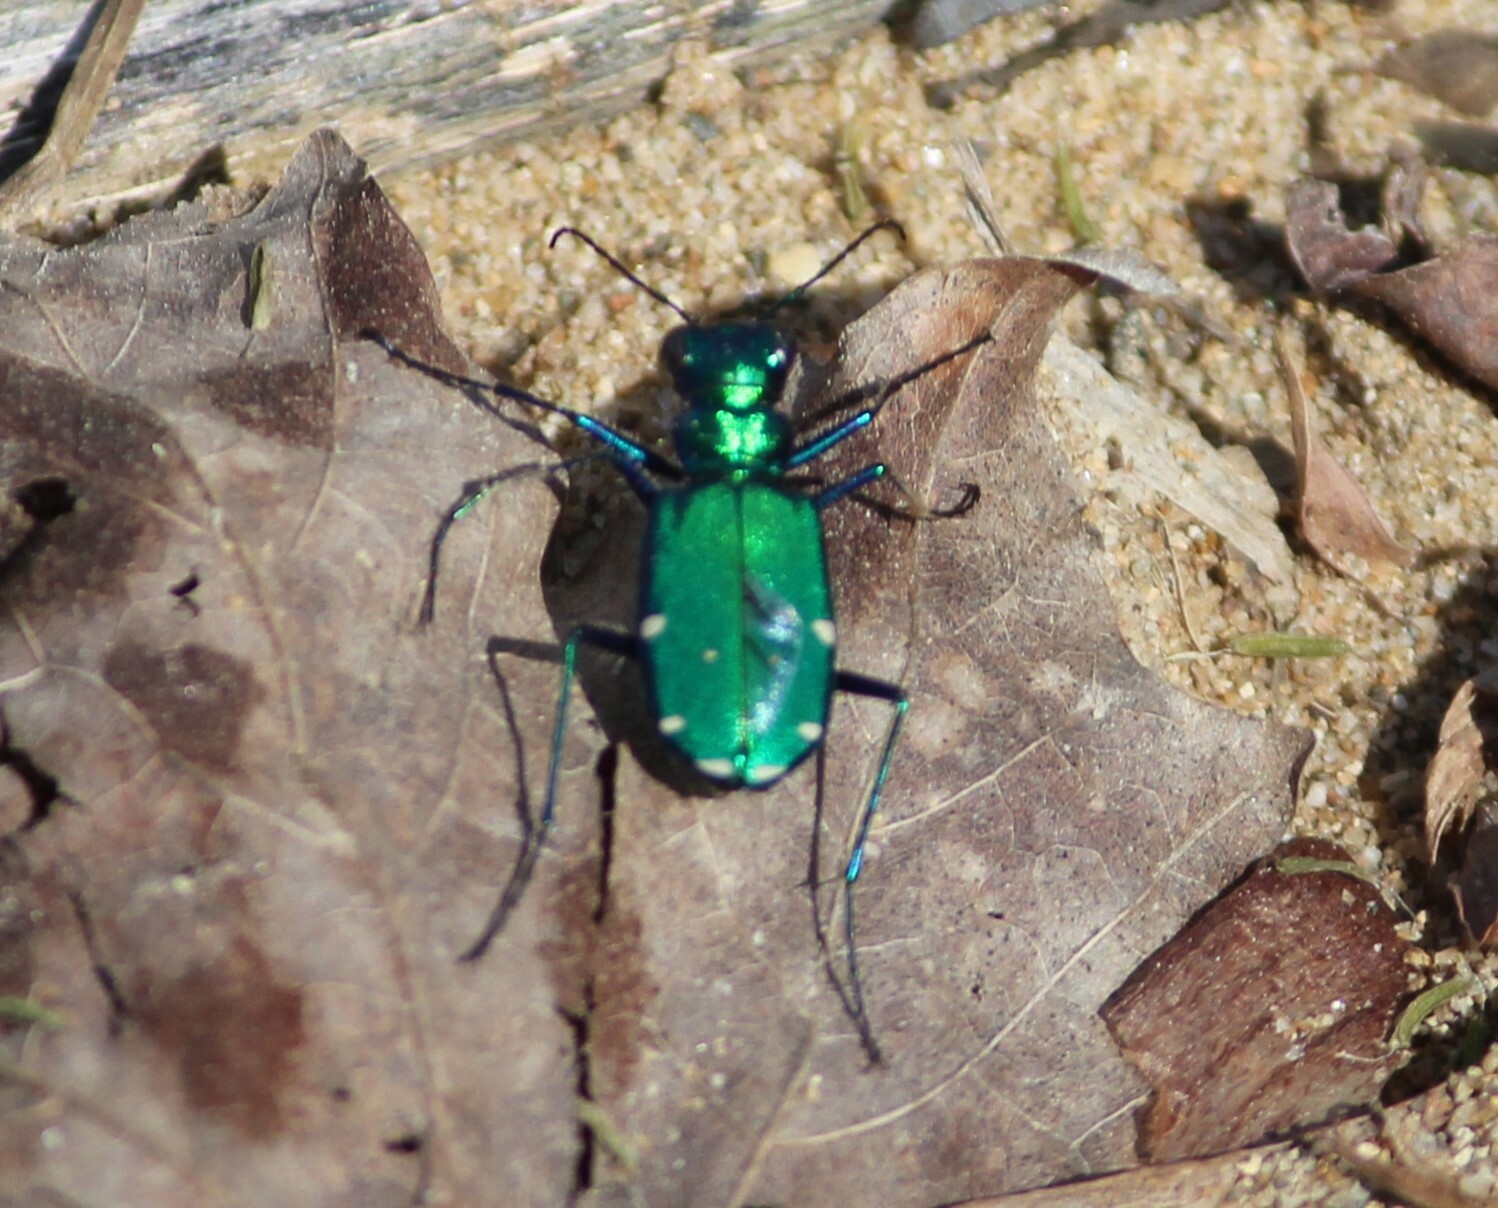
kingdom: Animalia
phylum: Arthropoda
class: Insecta
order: Coleoptera
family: Carabidae
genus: Cicindela
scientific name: Cicindela sexguttata
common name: Six-spotted tiger beetle
